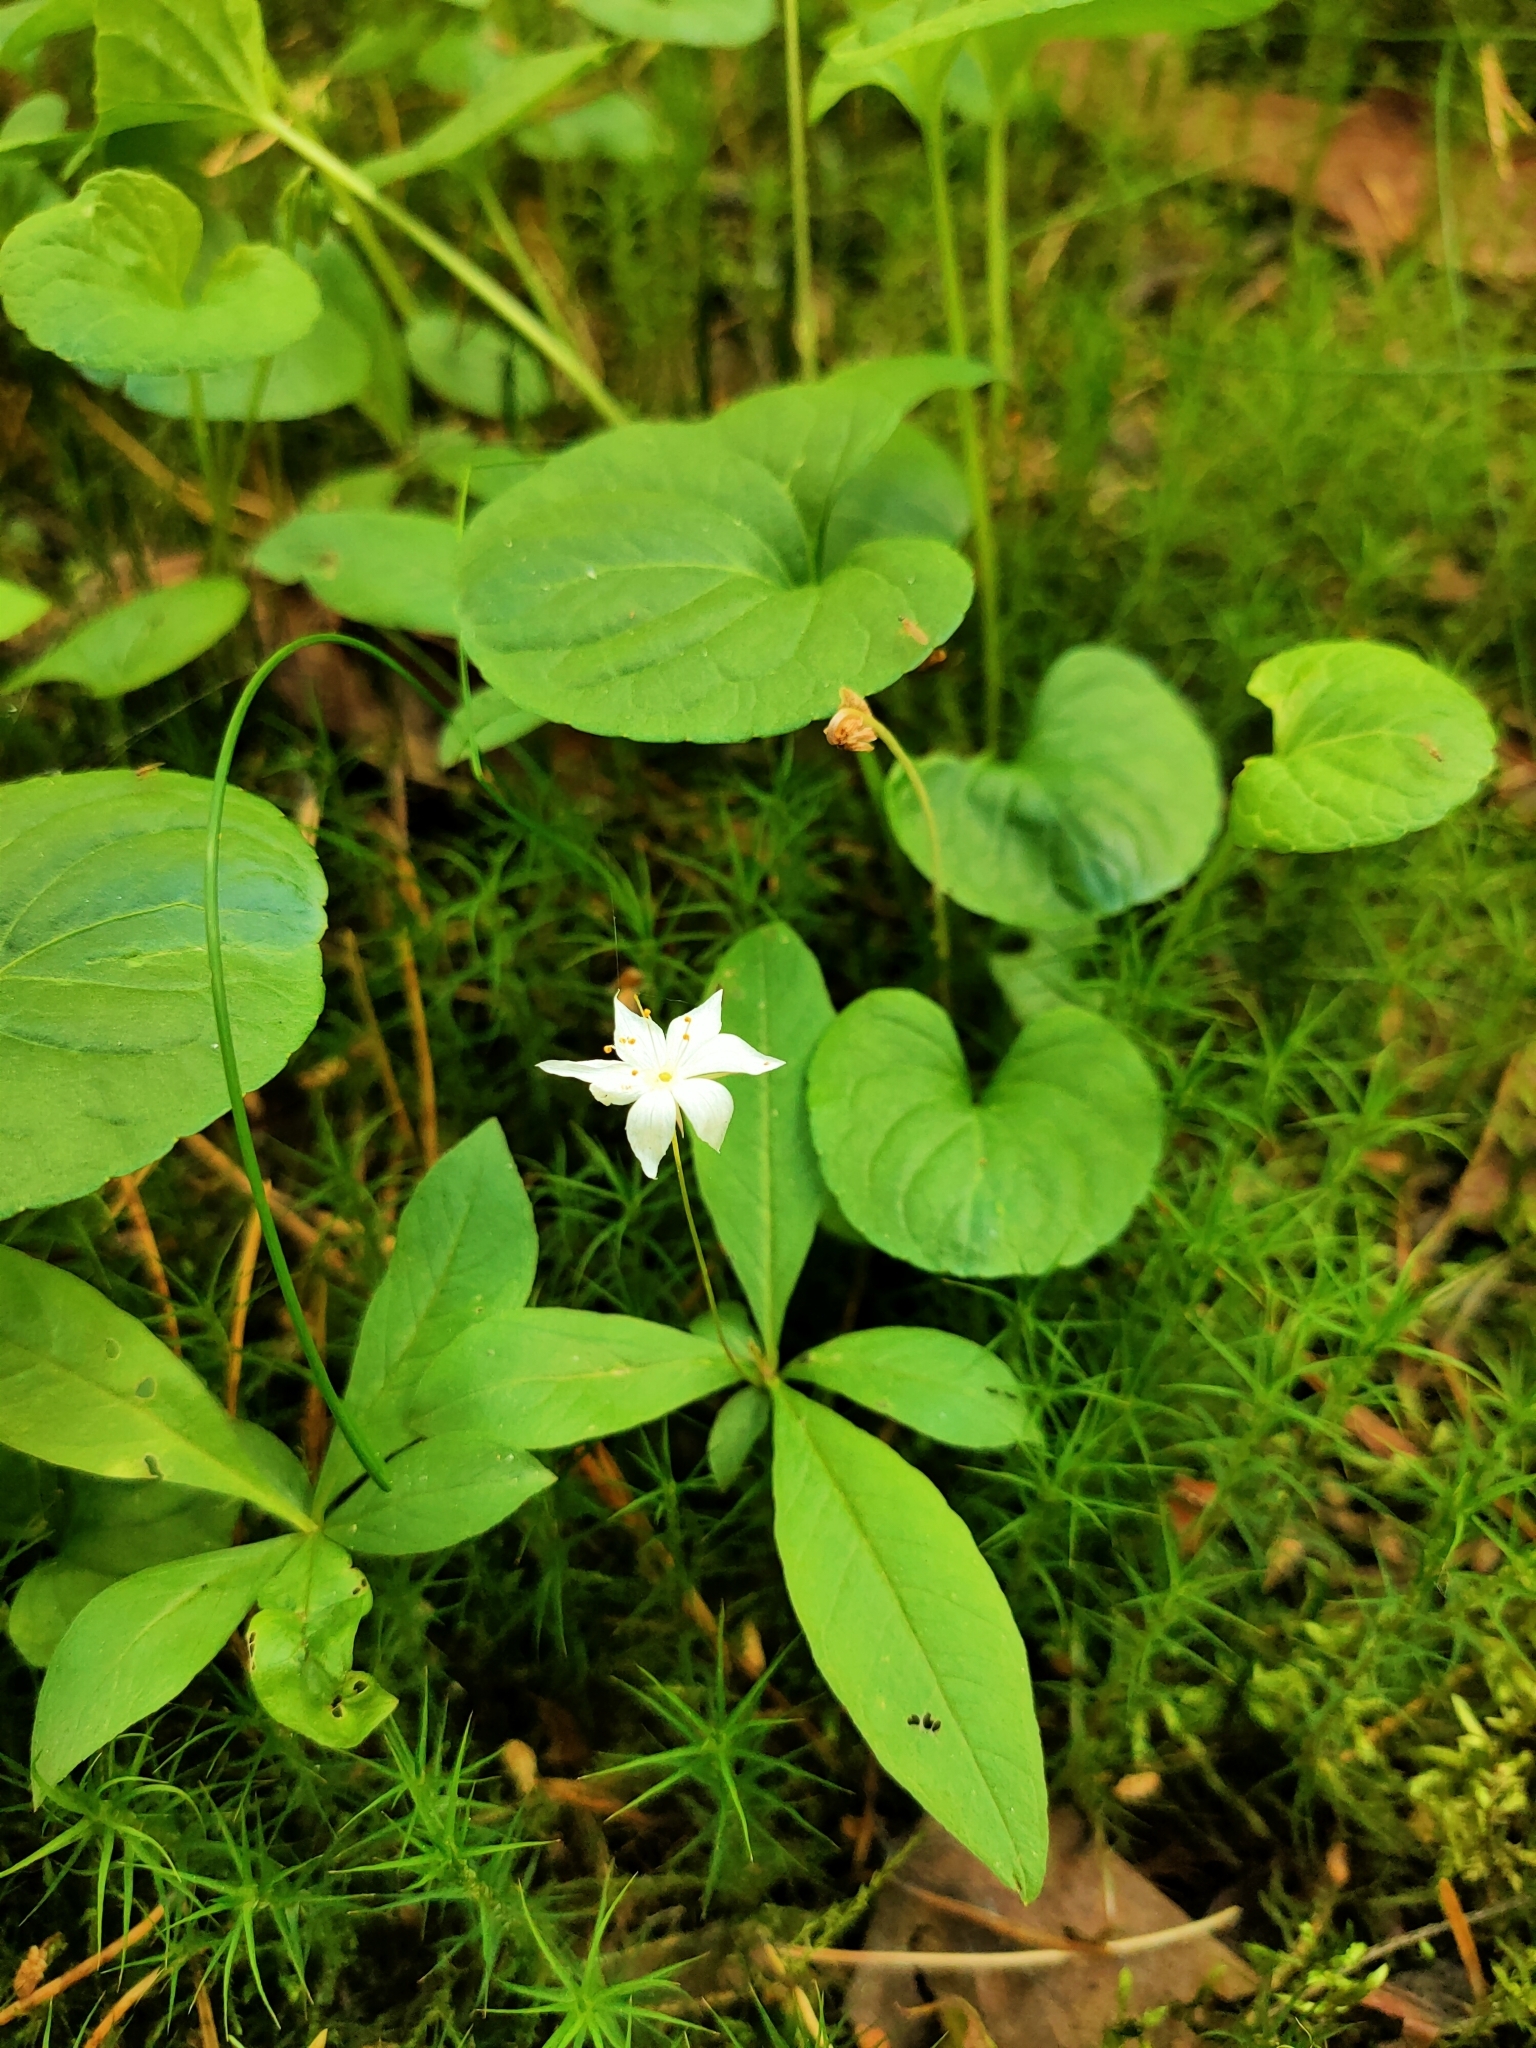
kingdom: Plantae
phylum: Tracheophyta
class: Magnoliopsida
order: Ericales
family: Primulaceae
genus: Lysimachia
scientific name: Lysimachia europaea
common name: Arctic starflower
